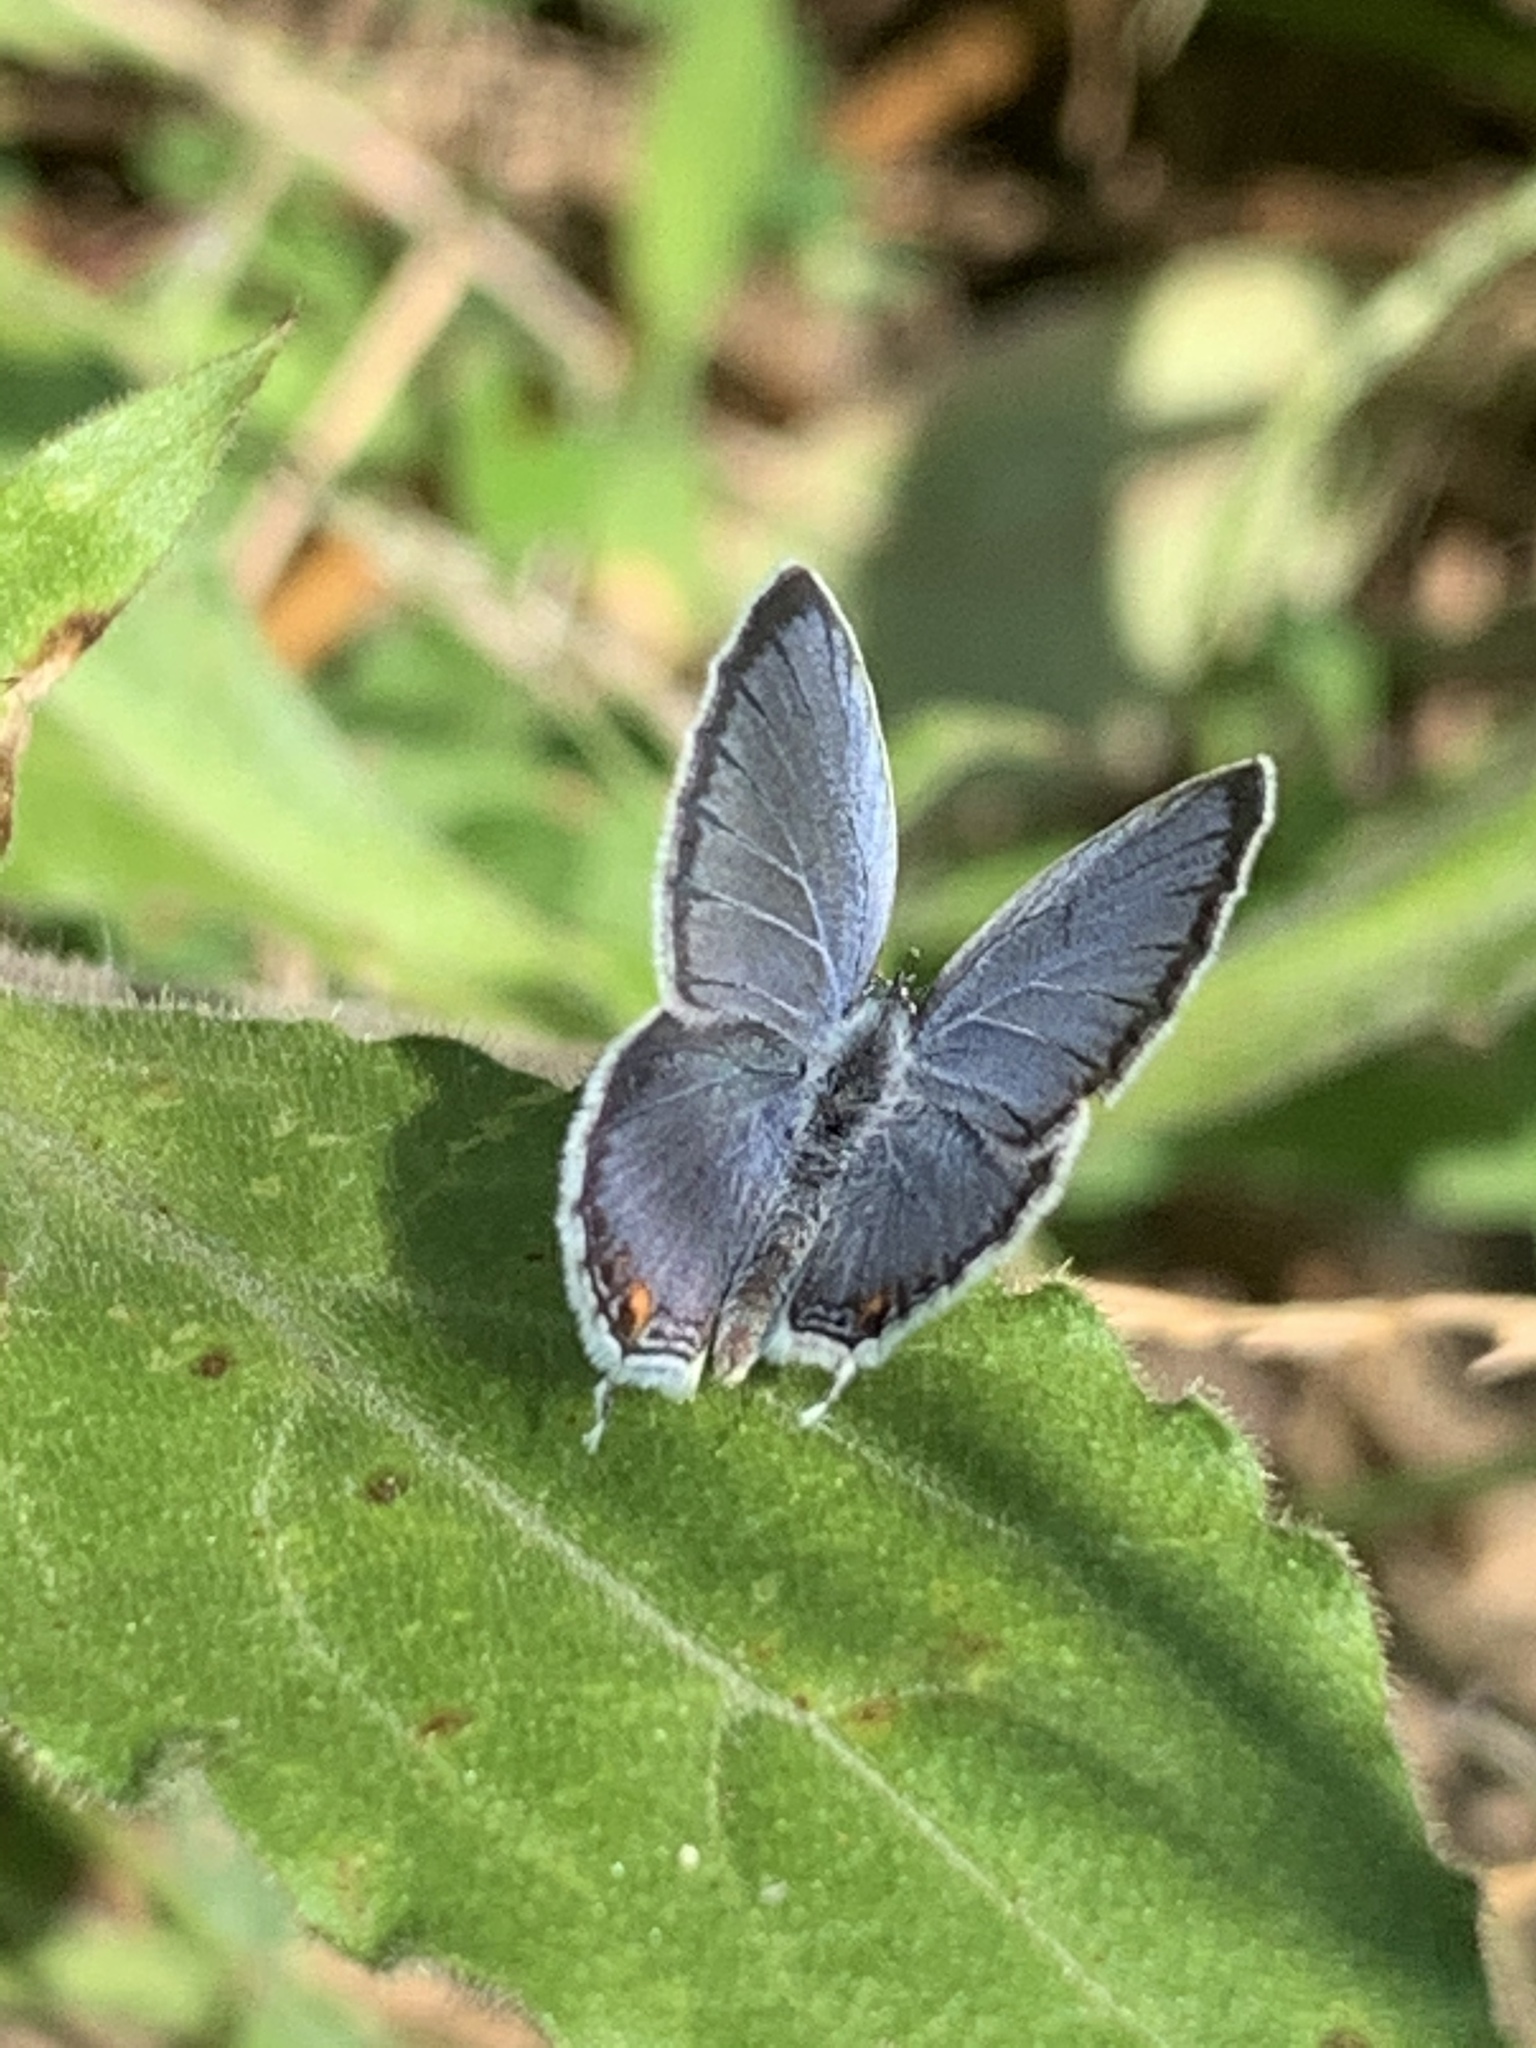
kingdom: Animalia
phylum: Arthropoda
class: Insecta
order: Lepidoptera
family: Lycaenidae
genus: Elkalyce
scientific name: Elkalyce comyntas
